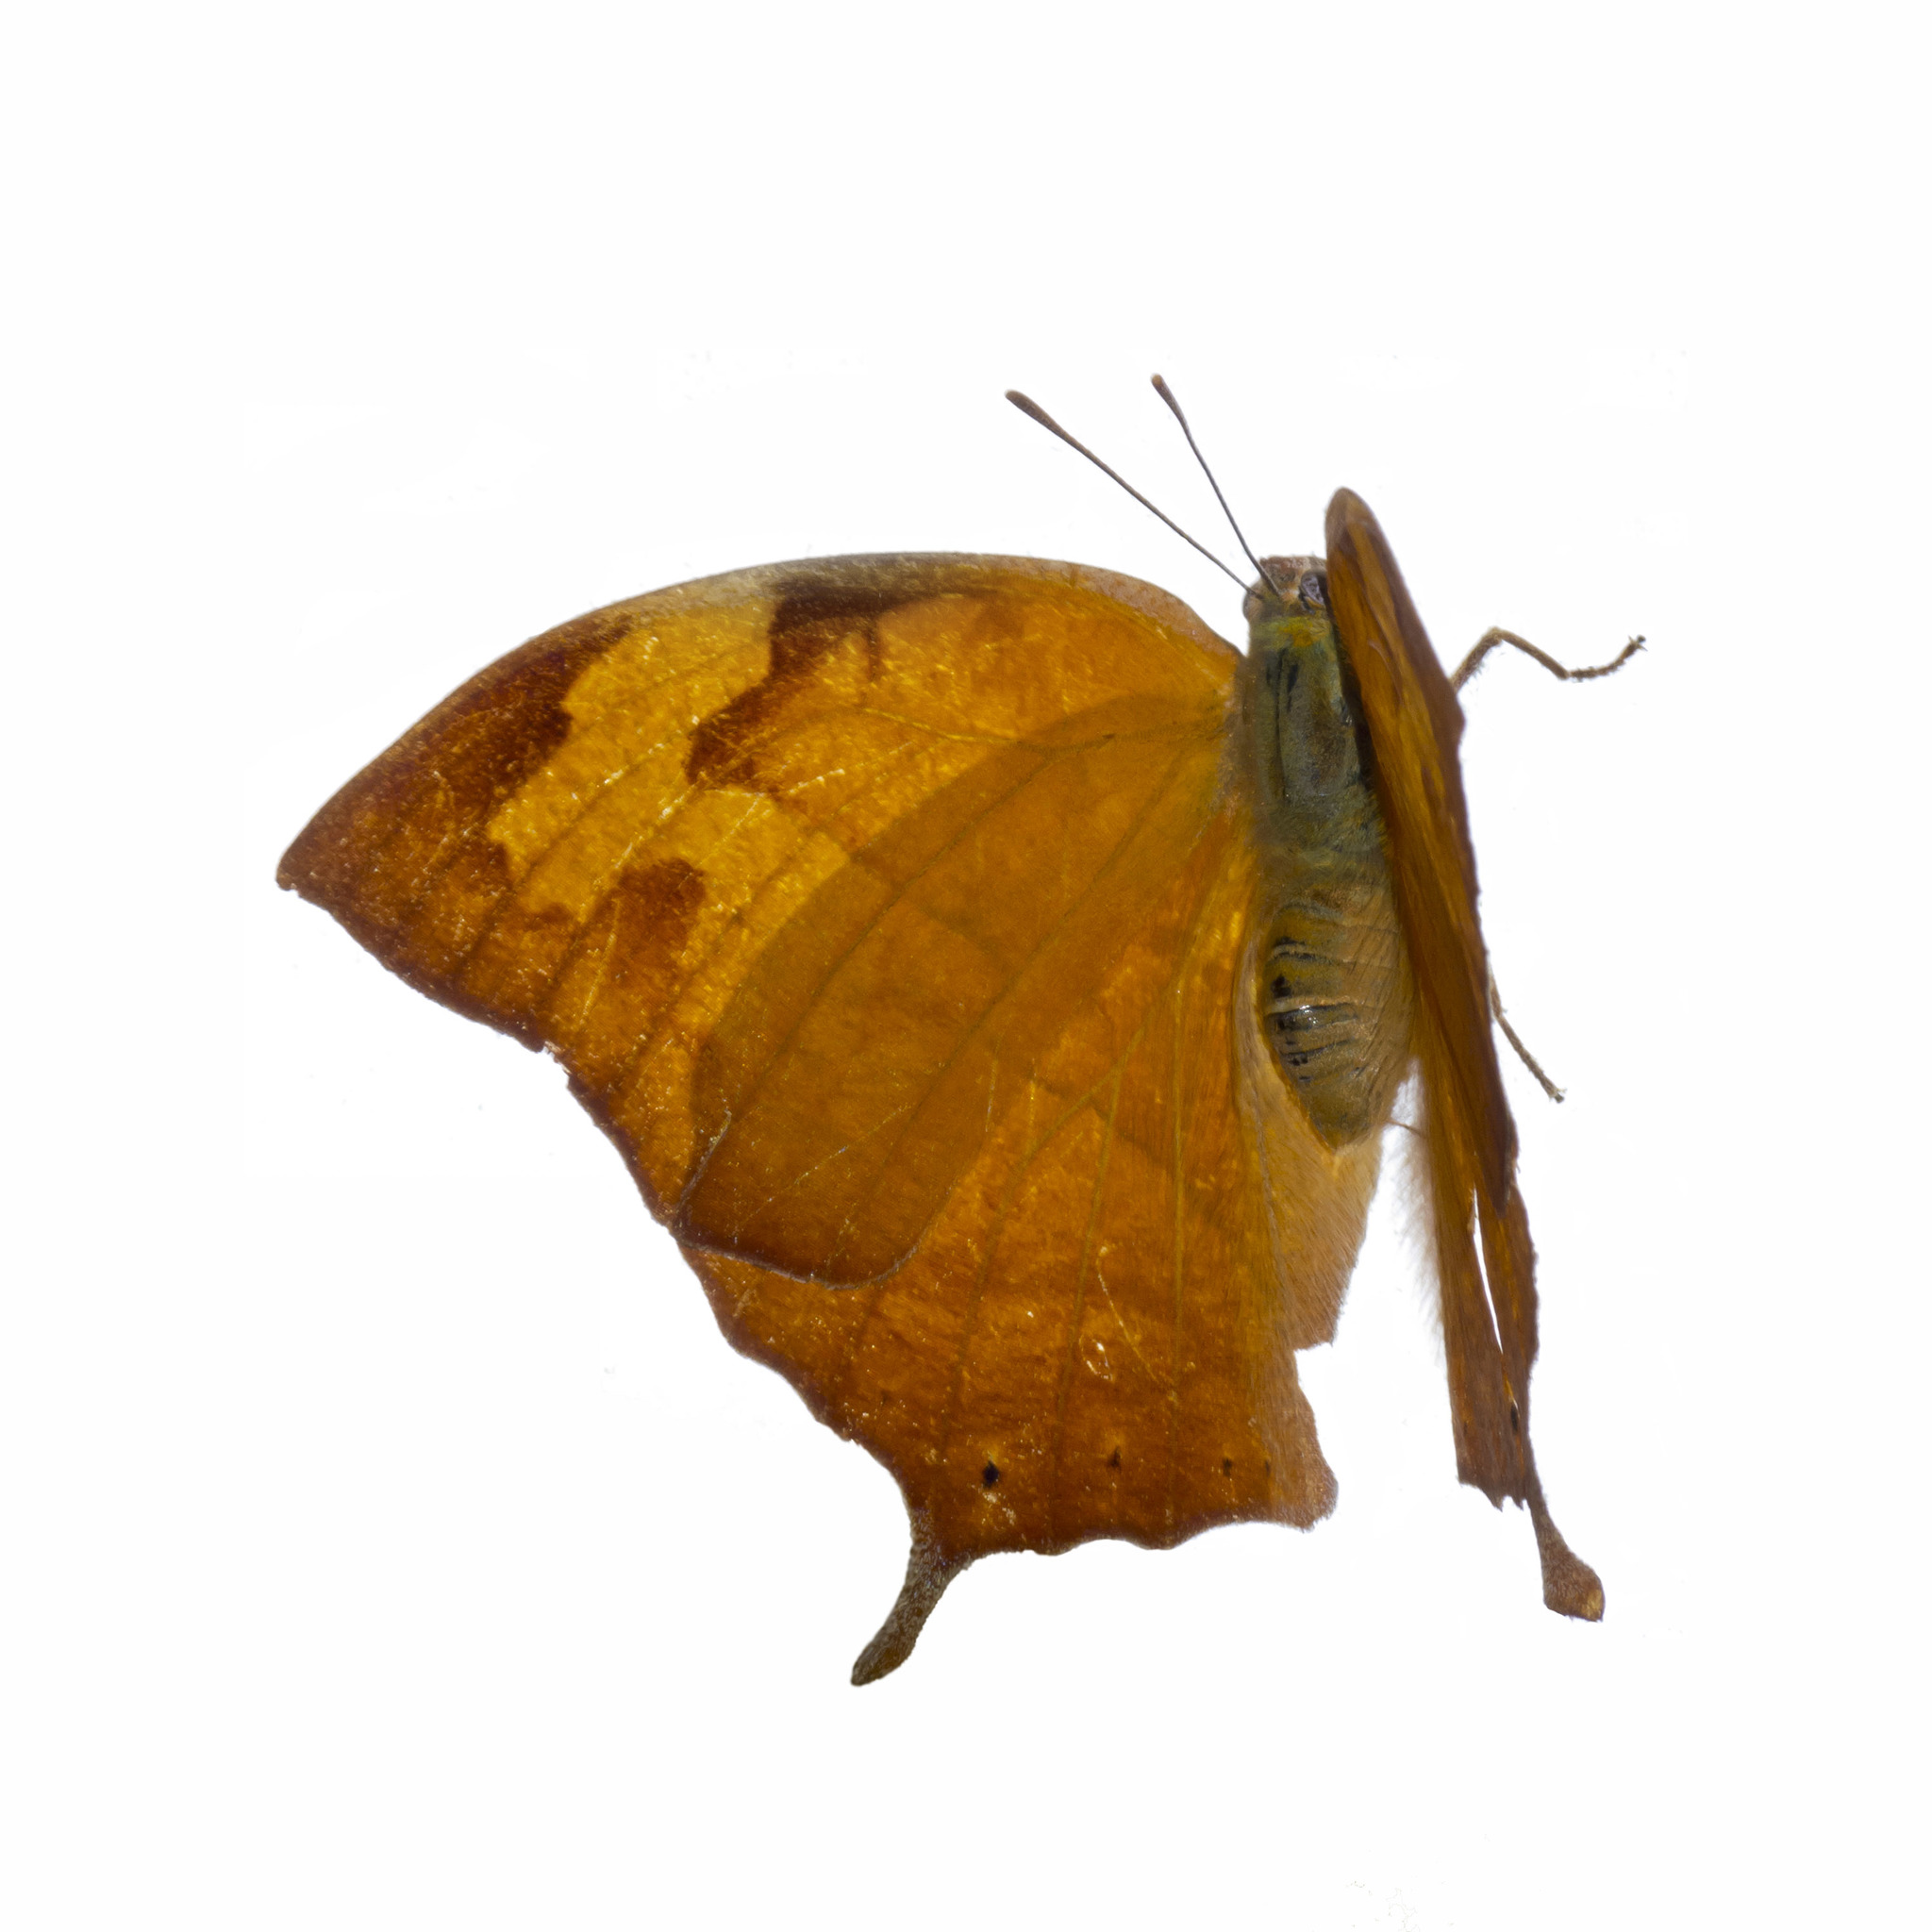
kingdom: Animalia
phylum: Arthropoda
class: Insecta
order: Lepidoptera
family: Nymphalidae
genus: Fountainea
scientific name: Fountainea
